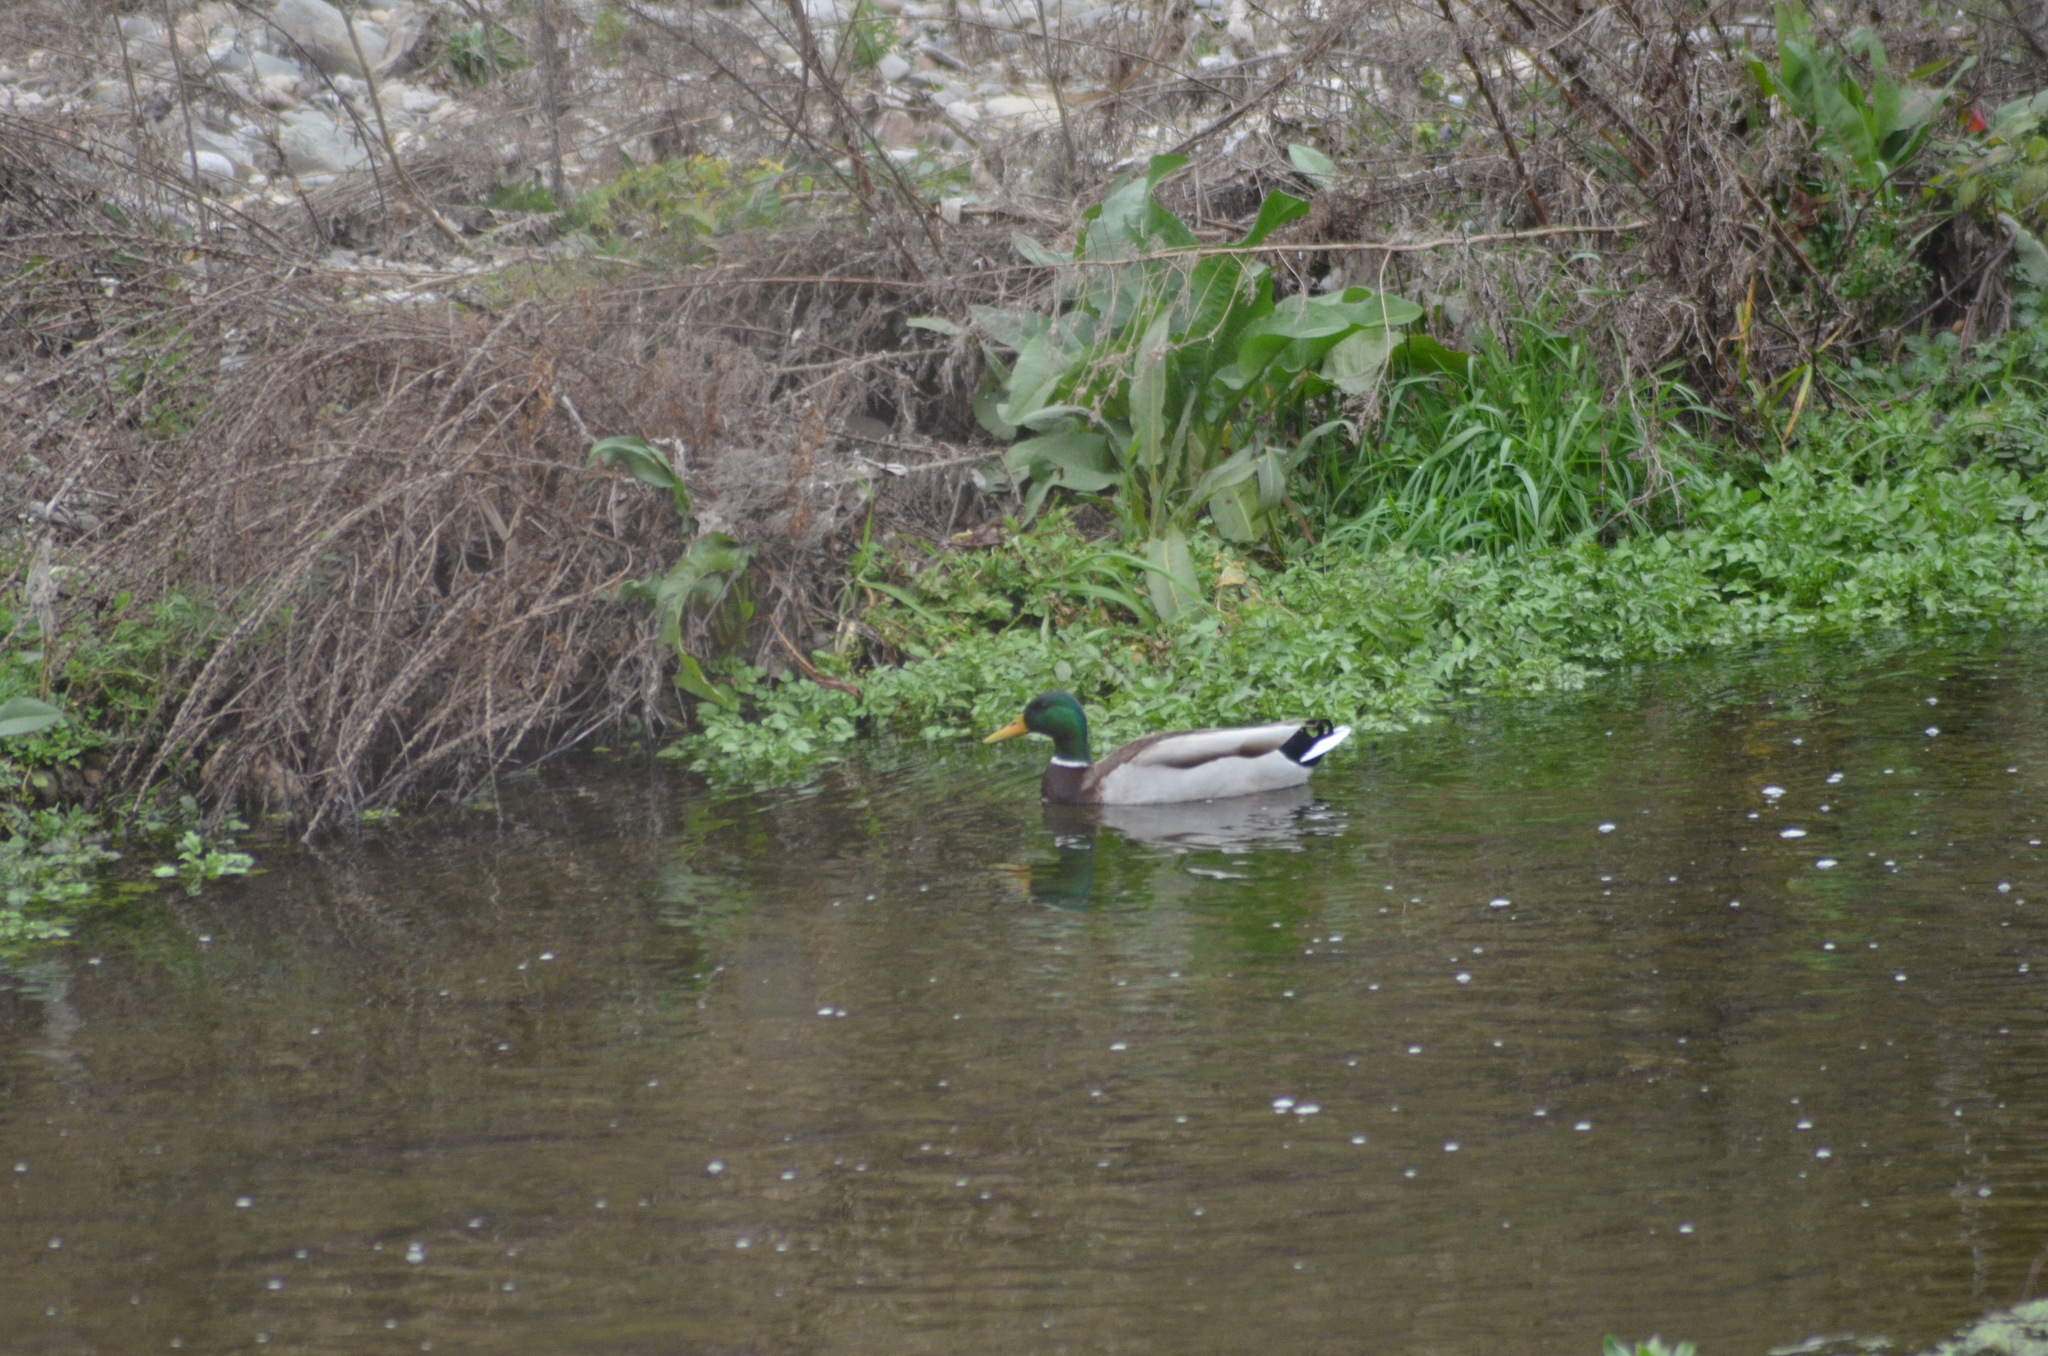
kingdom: Animalia
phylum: Chordata
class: Aves
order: Anseriformes
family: Anatidae
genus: Anas
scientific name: Anas platyrhynchos
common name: Mallard
